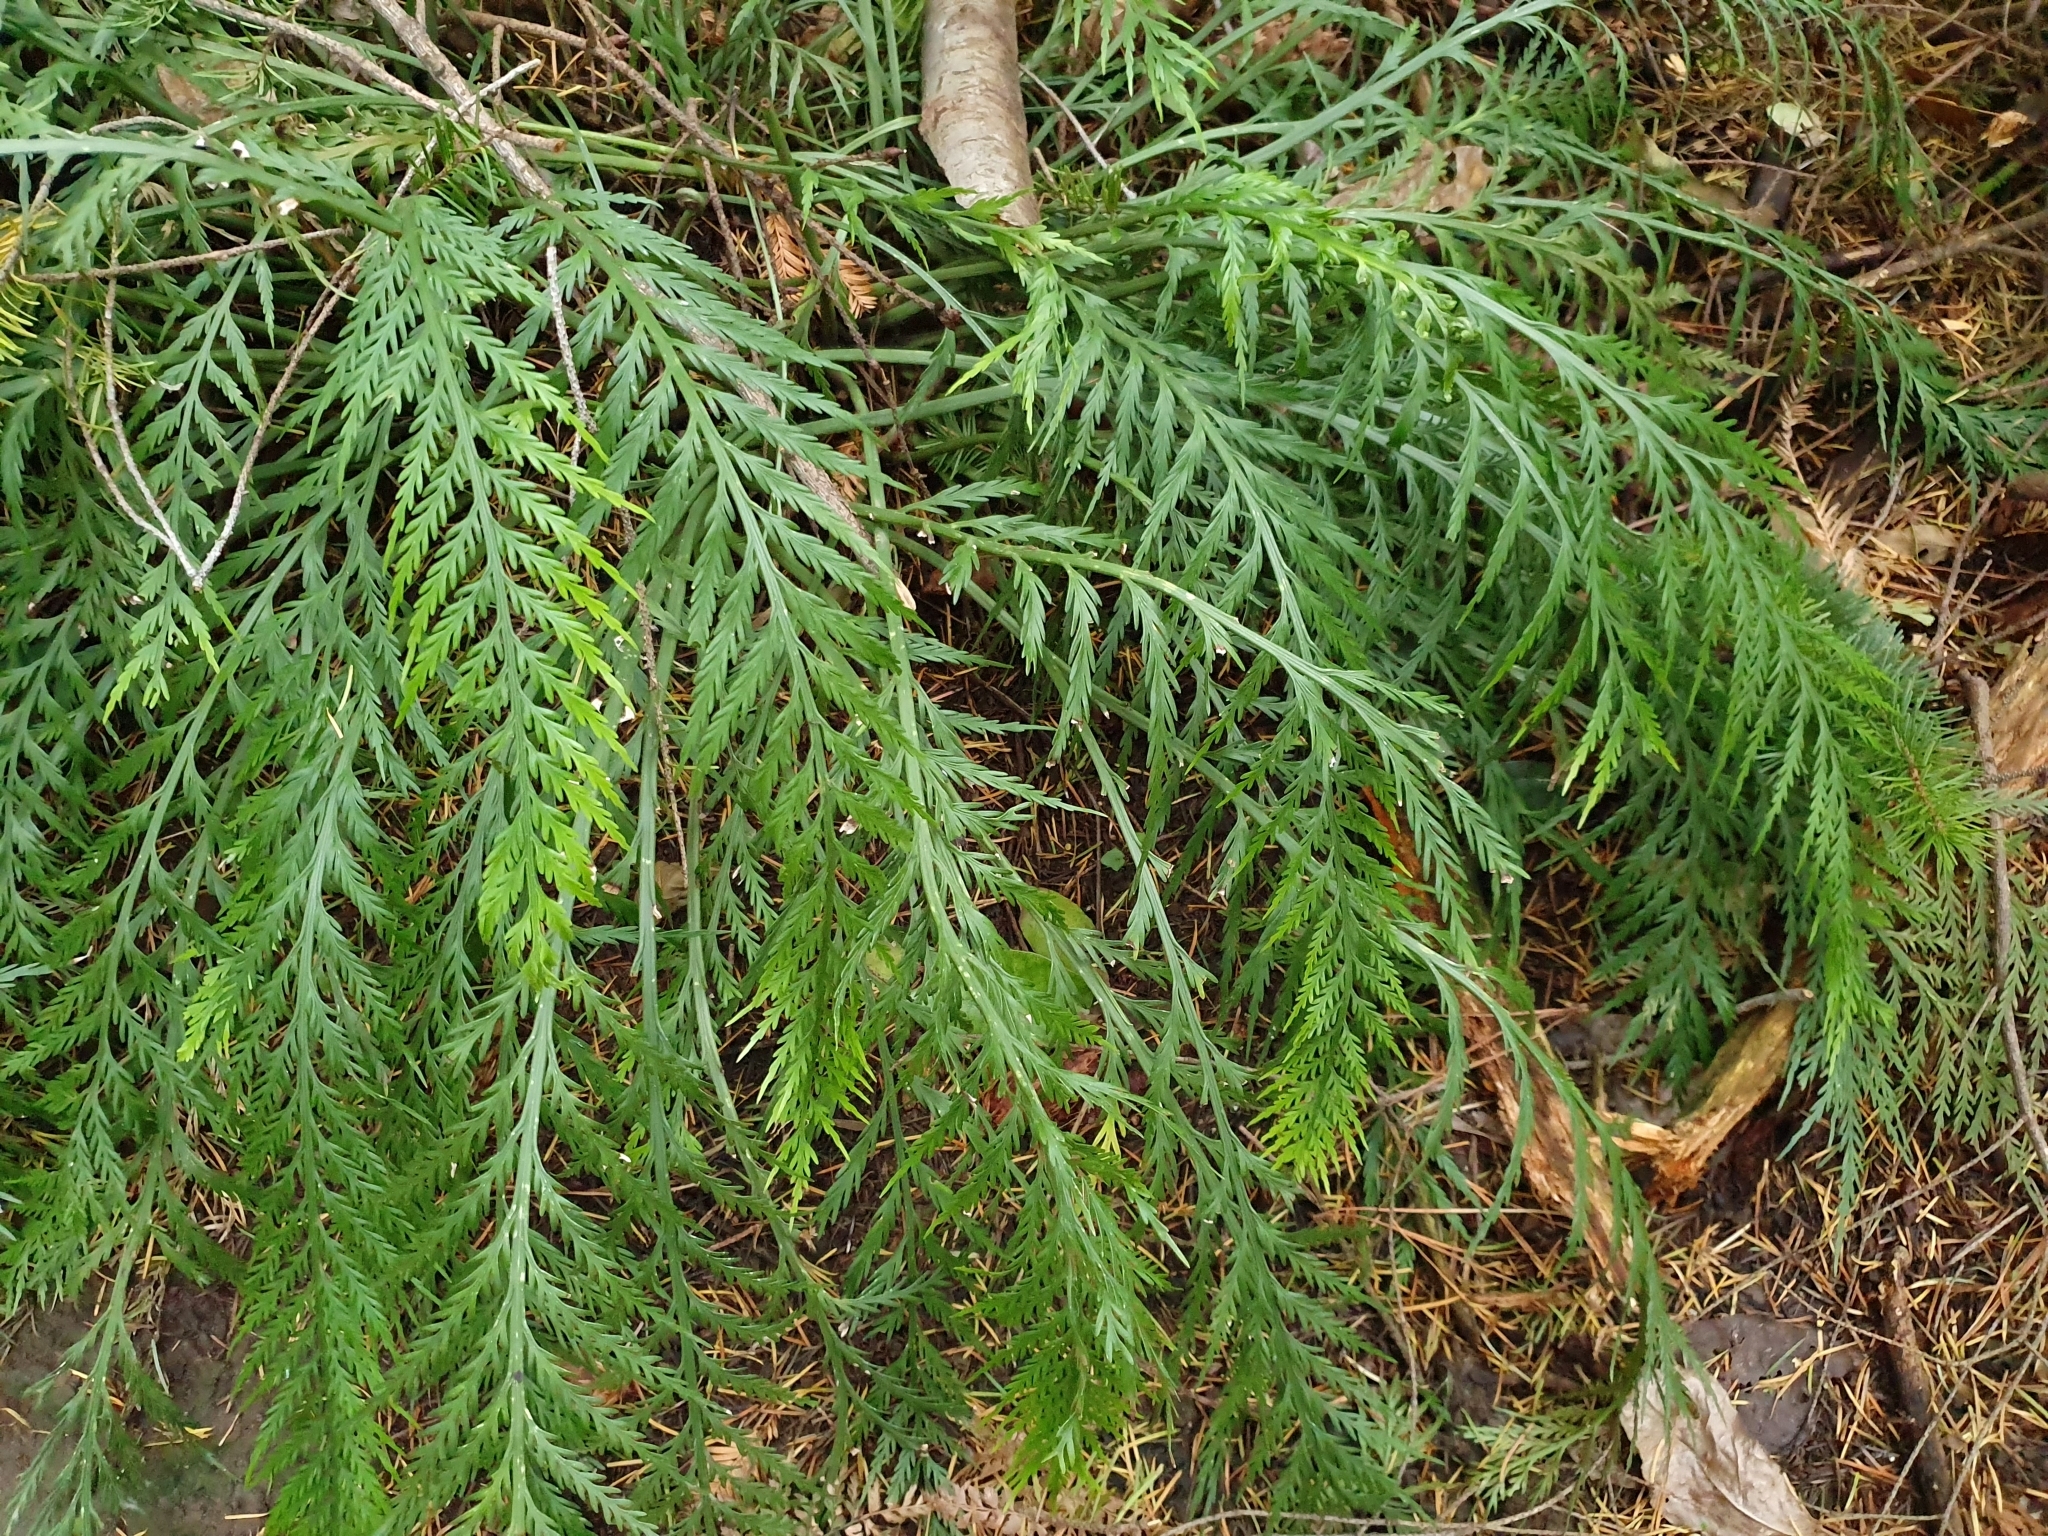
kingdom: Plantae
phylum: Tracheophyta
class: Polypodiopsida
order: Polypodiales
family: Aspleniaceae
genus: Asplenium
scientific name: Asplenium flaccidum
